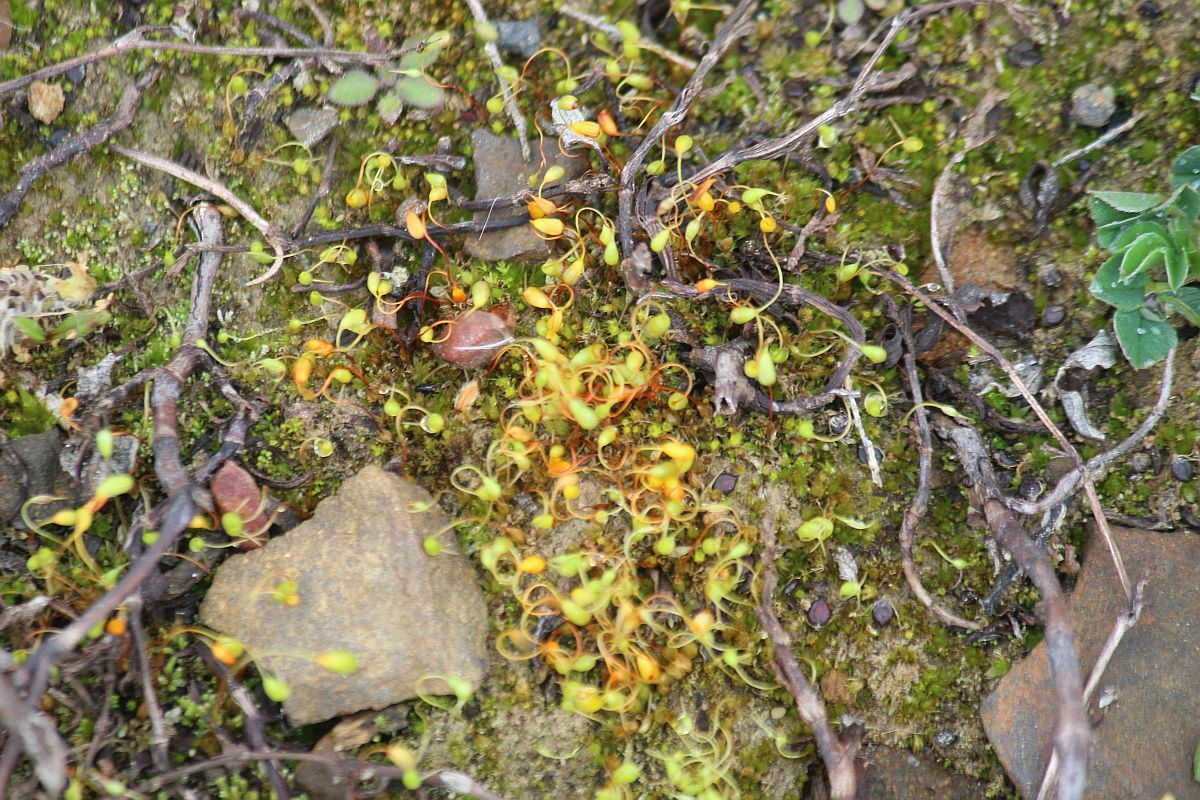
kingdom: Plantae
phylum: Bryophyta
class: Bryopsida
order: Funariales
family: Funariaceae
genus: Funaria
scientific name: Funaria hygrometrica
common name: Common cord moss
